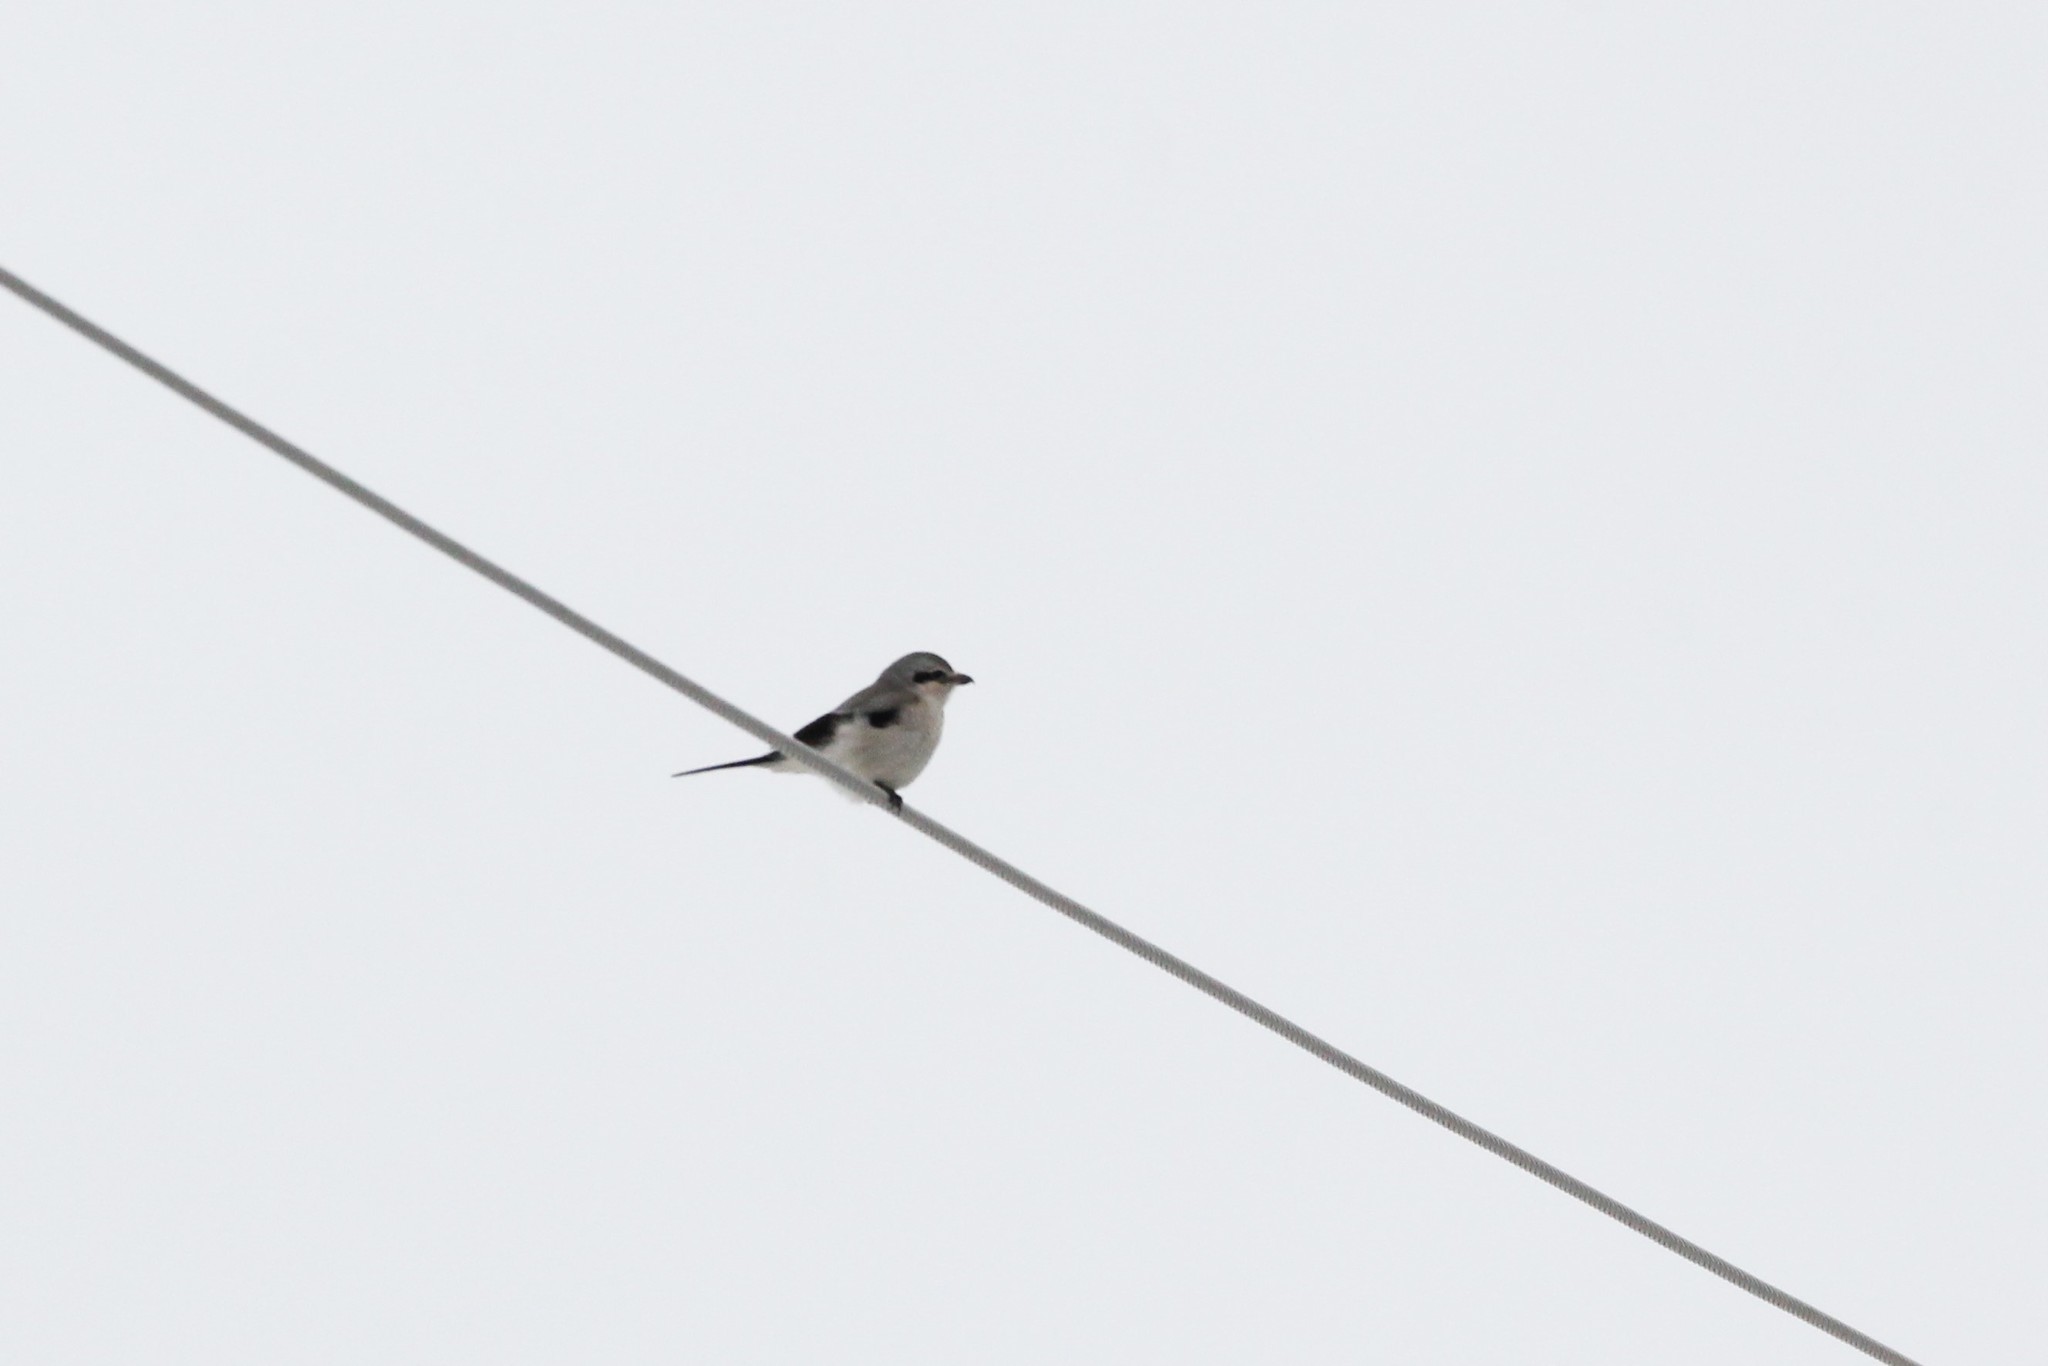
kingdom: Animalia
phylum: Chordata
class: Aves
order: Passeriformes
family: Laniidae
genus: Lanius
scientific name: Lanius borealis
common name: Northern shrike
